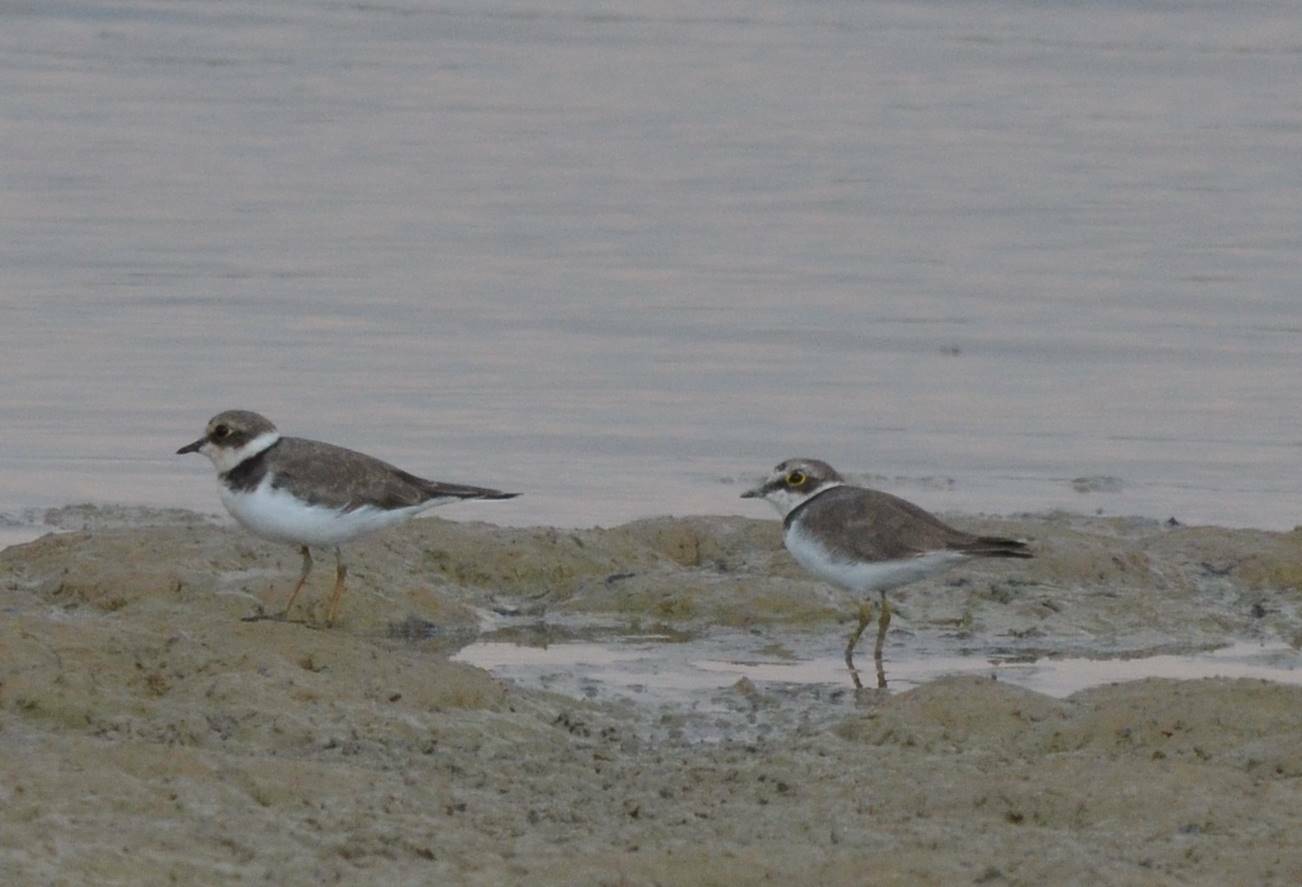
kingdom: Animalia
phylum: Chordata
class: Aves
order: Charadriiformes
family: Charadriidae
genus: Charadrius
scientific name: Charadrius dubius
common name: Little ringed plover
